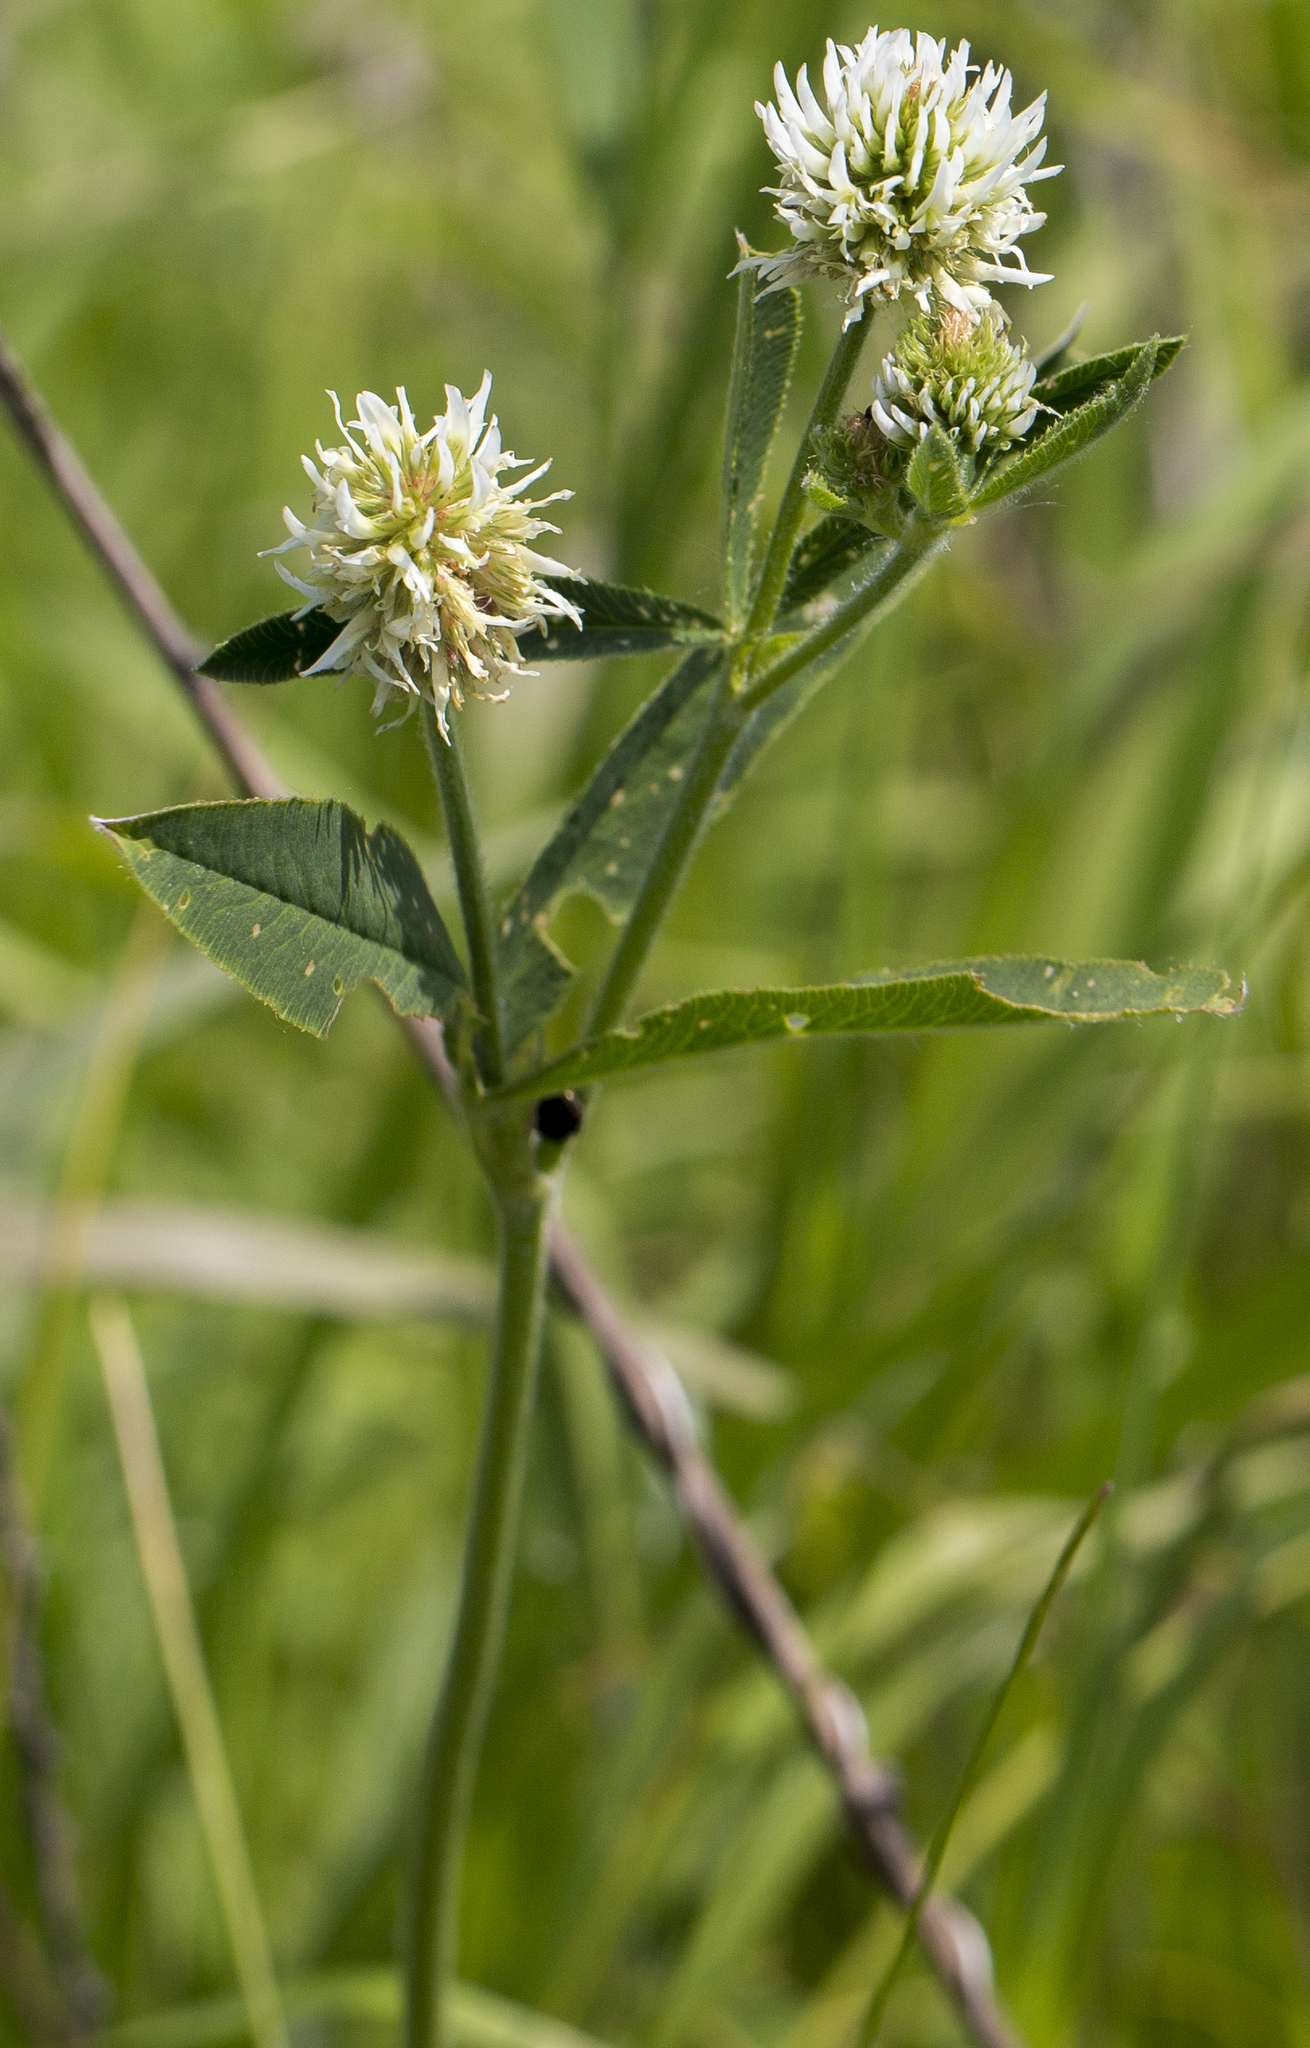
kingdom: Plantae
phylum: Tracheophyta
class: Magnoliopsida
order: Fabales
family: Fabaceae
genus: Trifolium
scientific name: Trifolium montanum
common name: Mountain clover
